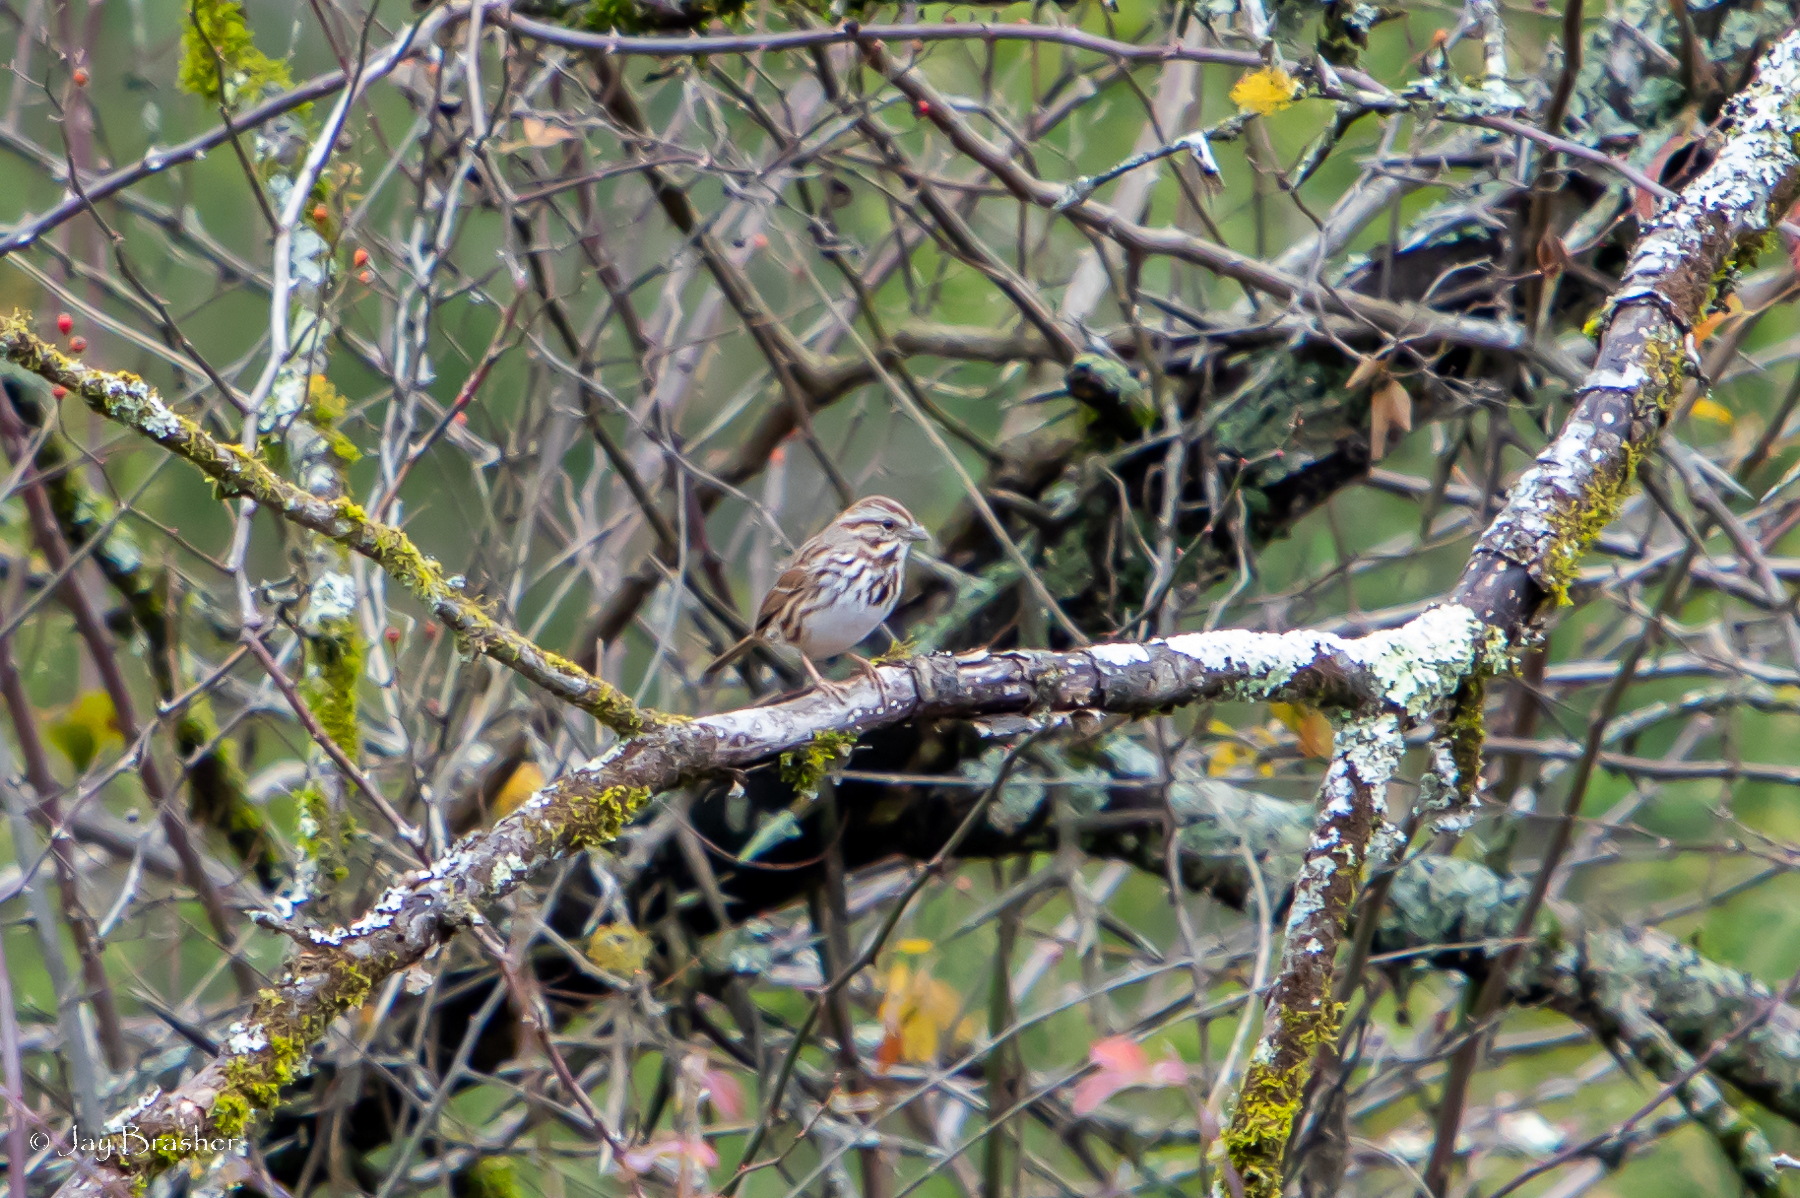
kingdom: Animalia
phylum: Chordata
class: Aves
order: Passeriformes
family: Passerellidae
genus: Melospiza
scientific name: Melospiza melodia
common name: Song sparrow
